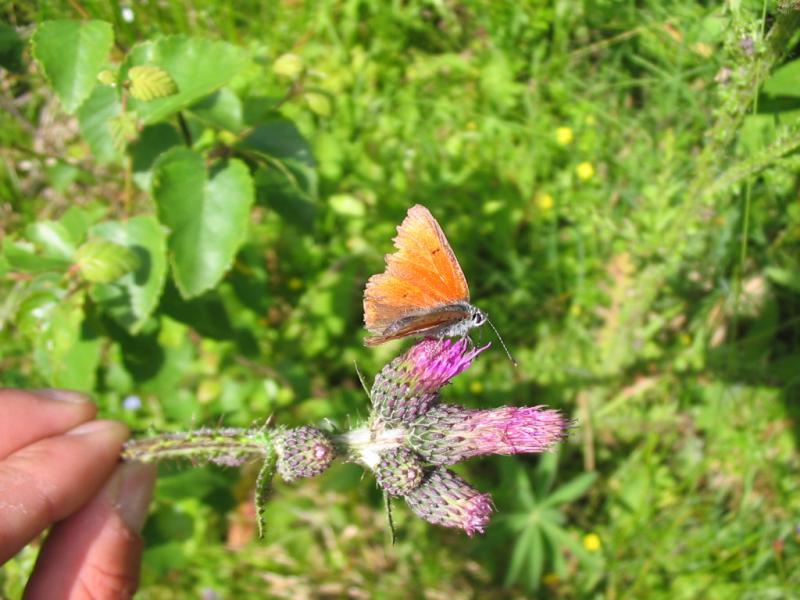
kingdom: Animalia
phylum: Arthropoda
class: Insecta
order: Lepidoptera
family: Lycaenidae
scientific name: Lycaenidae
